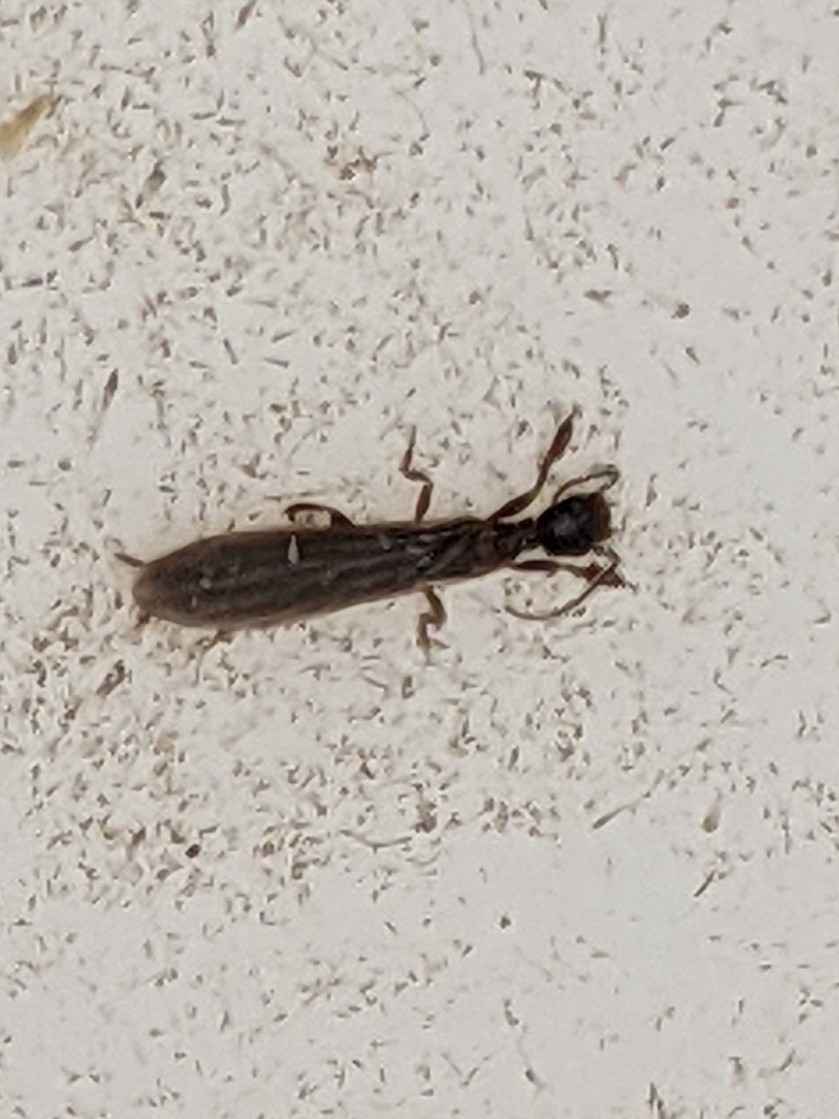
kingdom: Animalia
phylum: Arthropoda
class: Insecta
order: Embioptera
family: Oligotomidae
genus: Oligotoma
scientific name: Oligotoma nigra
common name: Black webspinner
